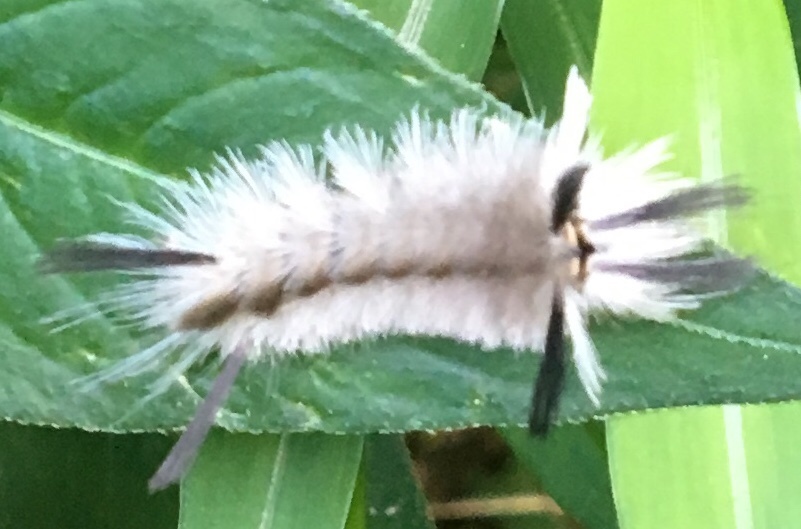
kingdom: Animalia
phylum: Arthropoda
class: Insecta
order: Lepidoptera
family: Erebidae
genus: Halysidota
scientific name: Halysidota tessellaris
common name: Banded tussock moth
